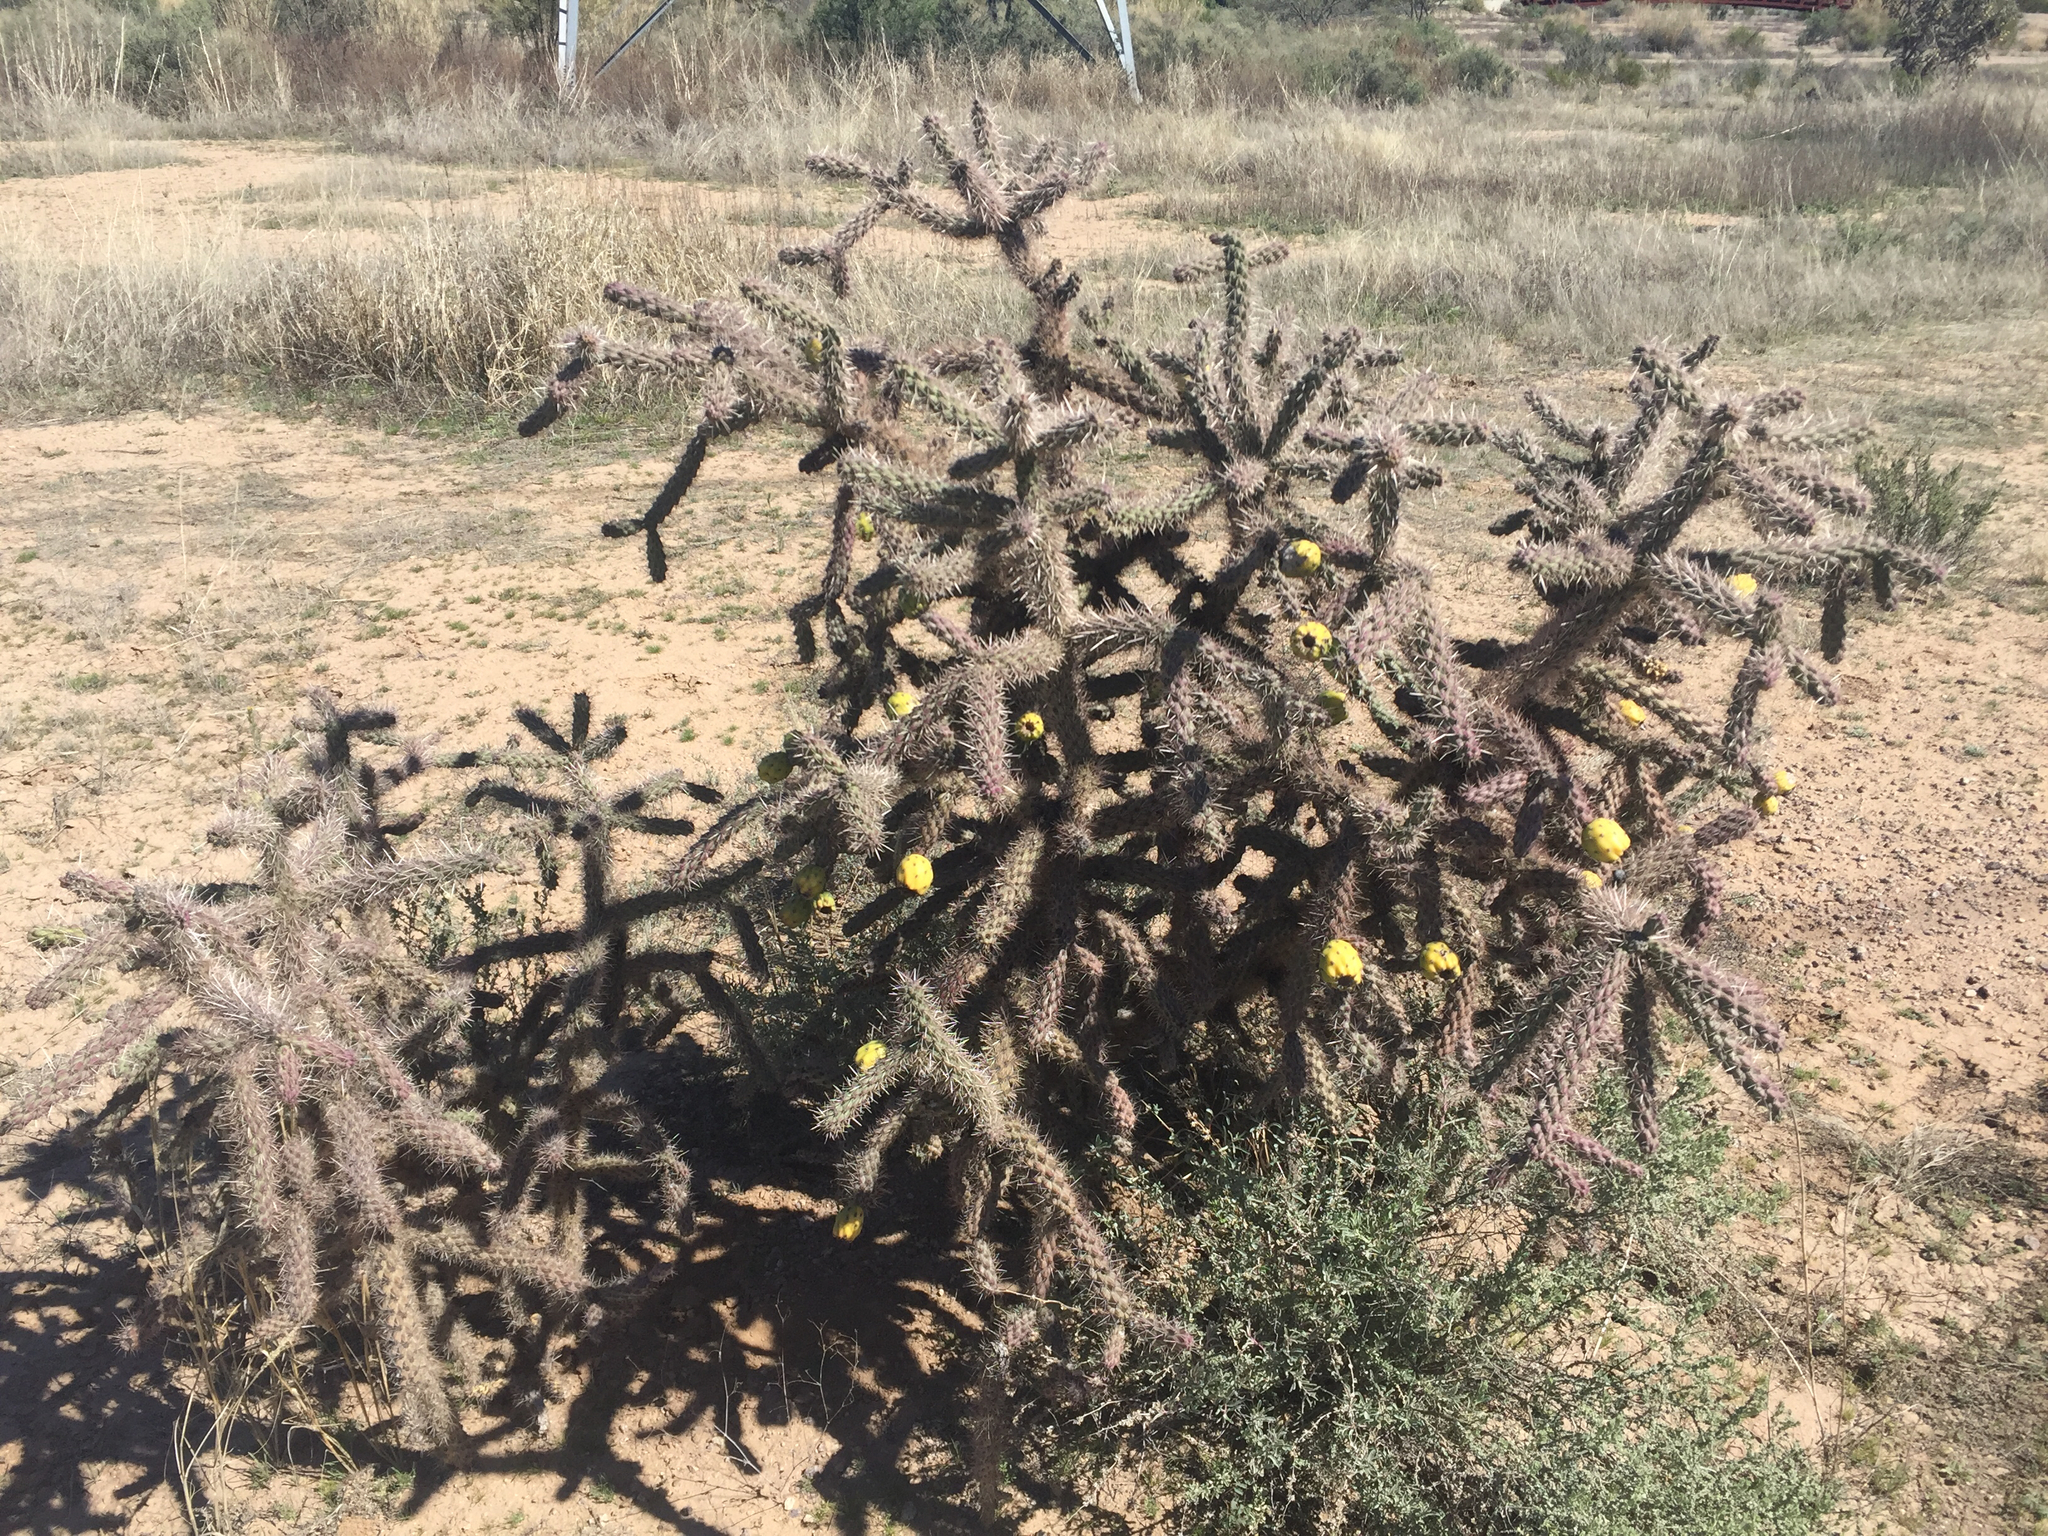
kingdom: Plantae
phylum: Tracheophyta
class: Magnoliopsida
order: Caryophyllales
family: Cactaceae
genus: Cylindropuntia
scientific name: Cylindropuntia imbricata
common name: Candelabrum cactus
